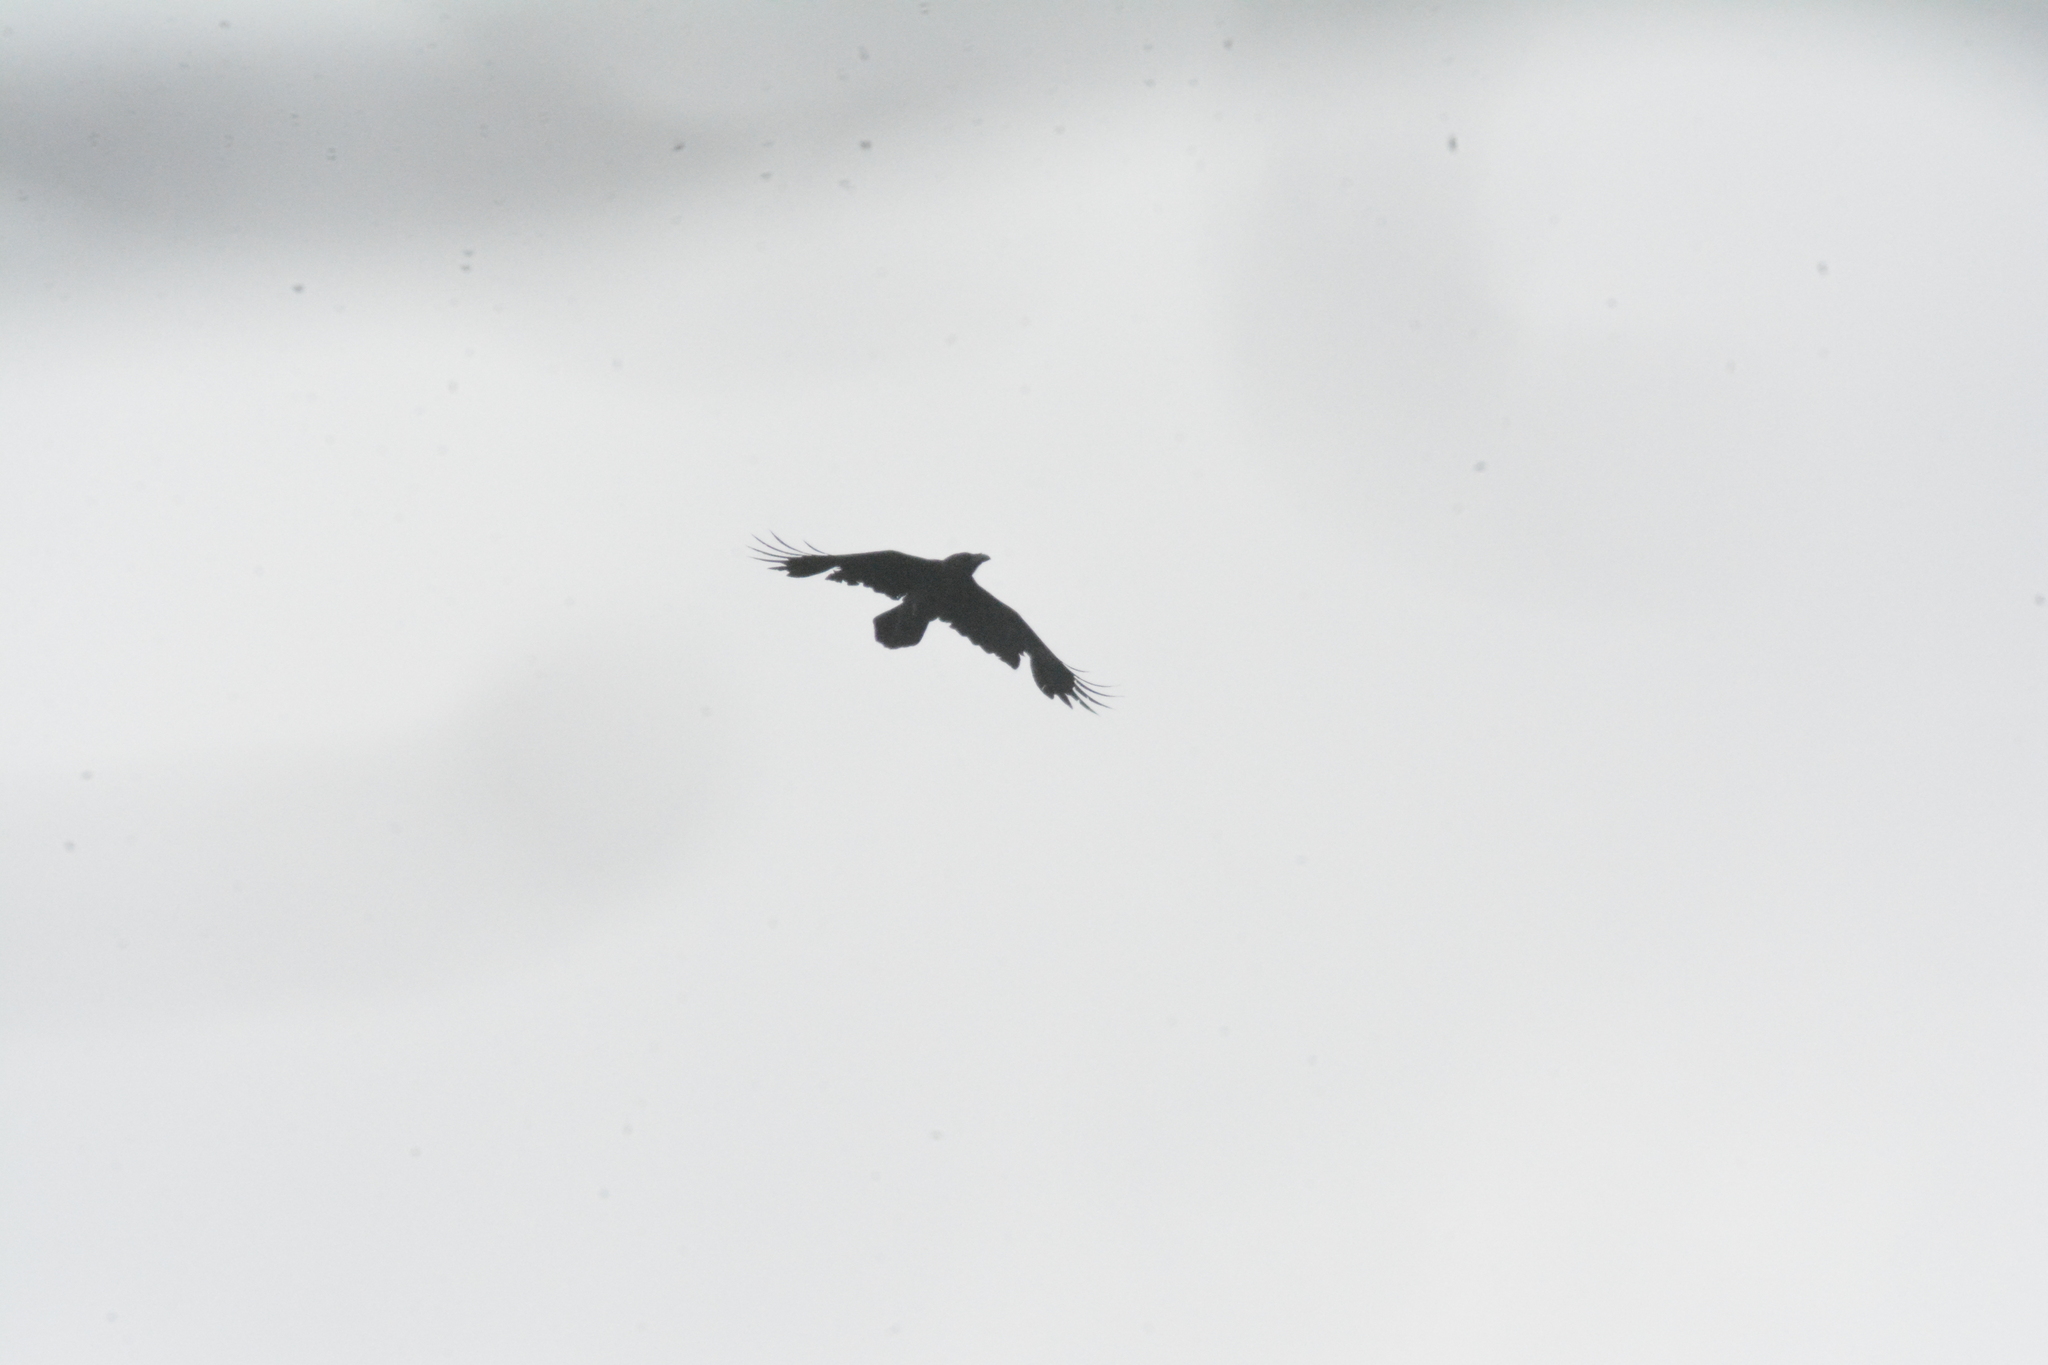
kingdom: Animalia
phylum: Chordata
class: Aves
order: Passeriformes
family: Corvidae
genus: Corvus
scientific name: Corvus corax
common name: Common raven
